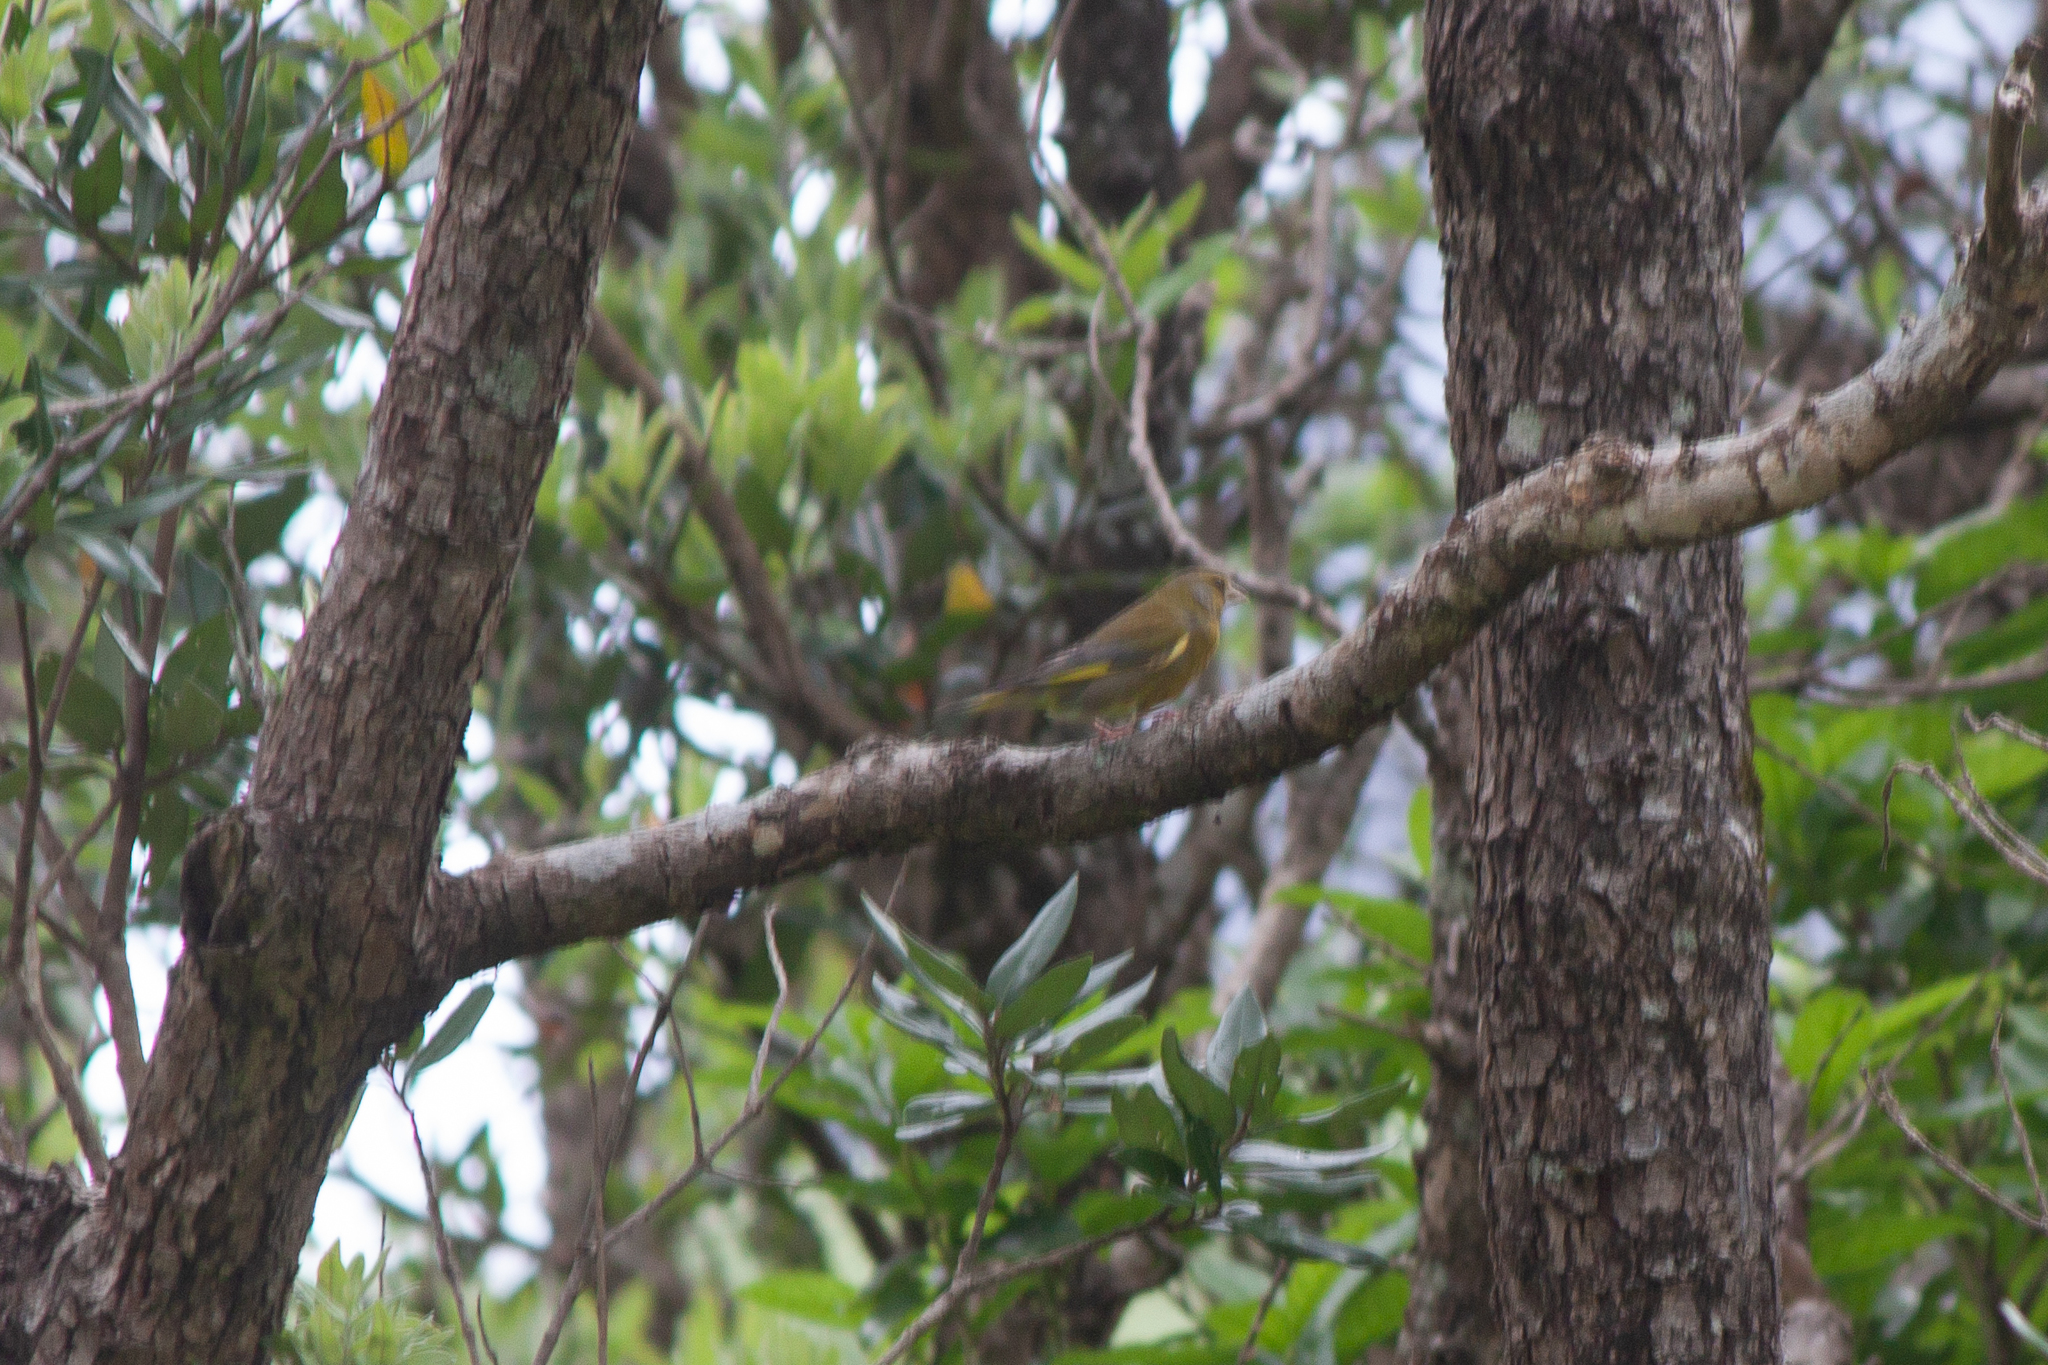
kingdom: Plantae
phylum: Tracheophyta
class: Liliopsida
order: Poales
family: Poaceae
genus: Chloris
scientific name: Chloris chloris
